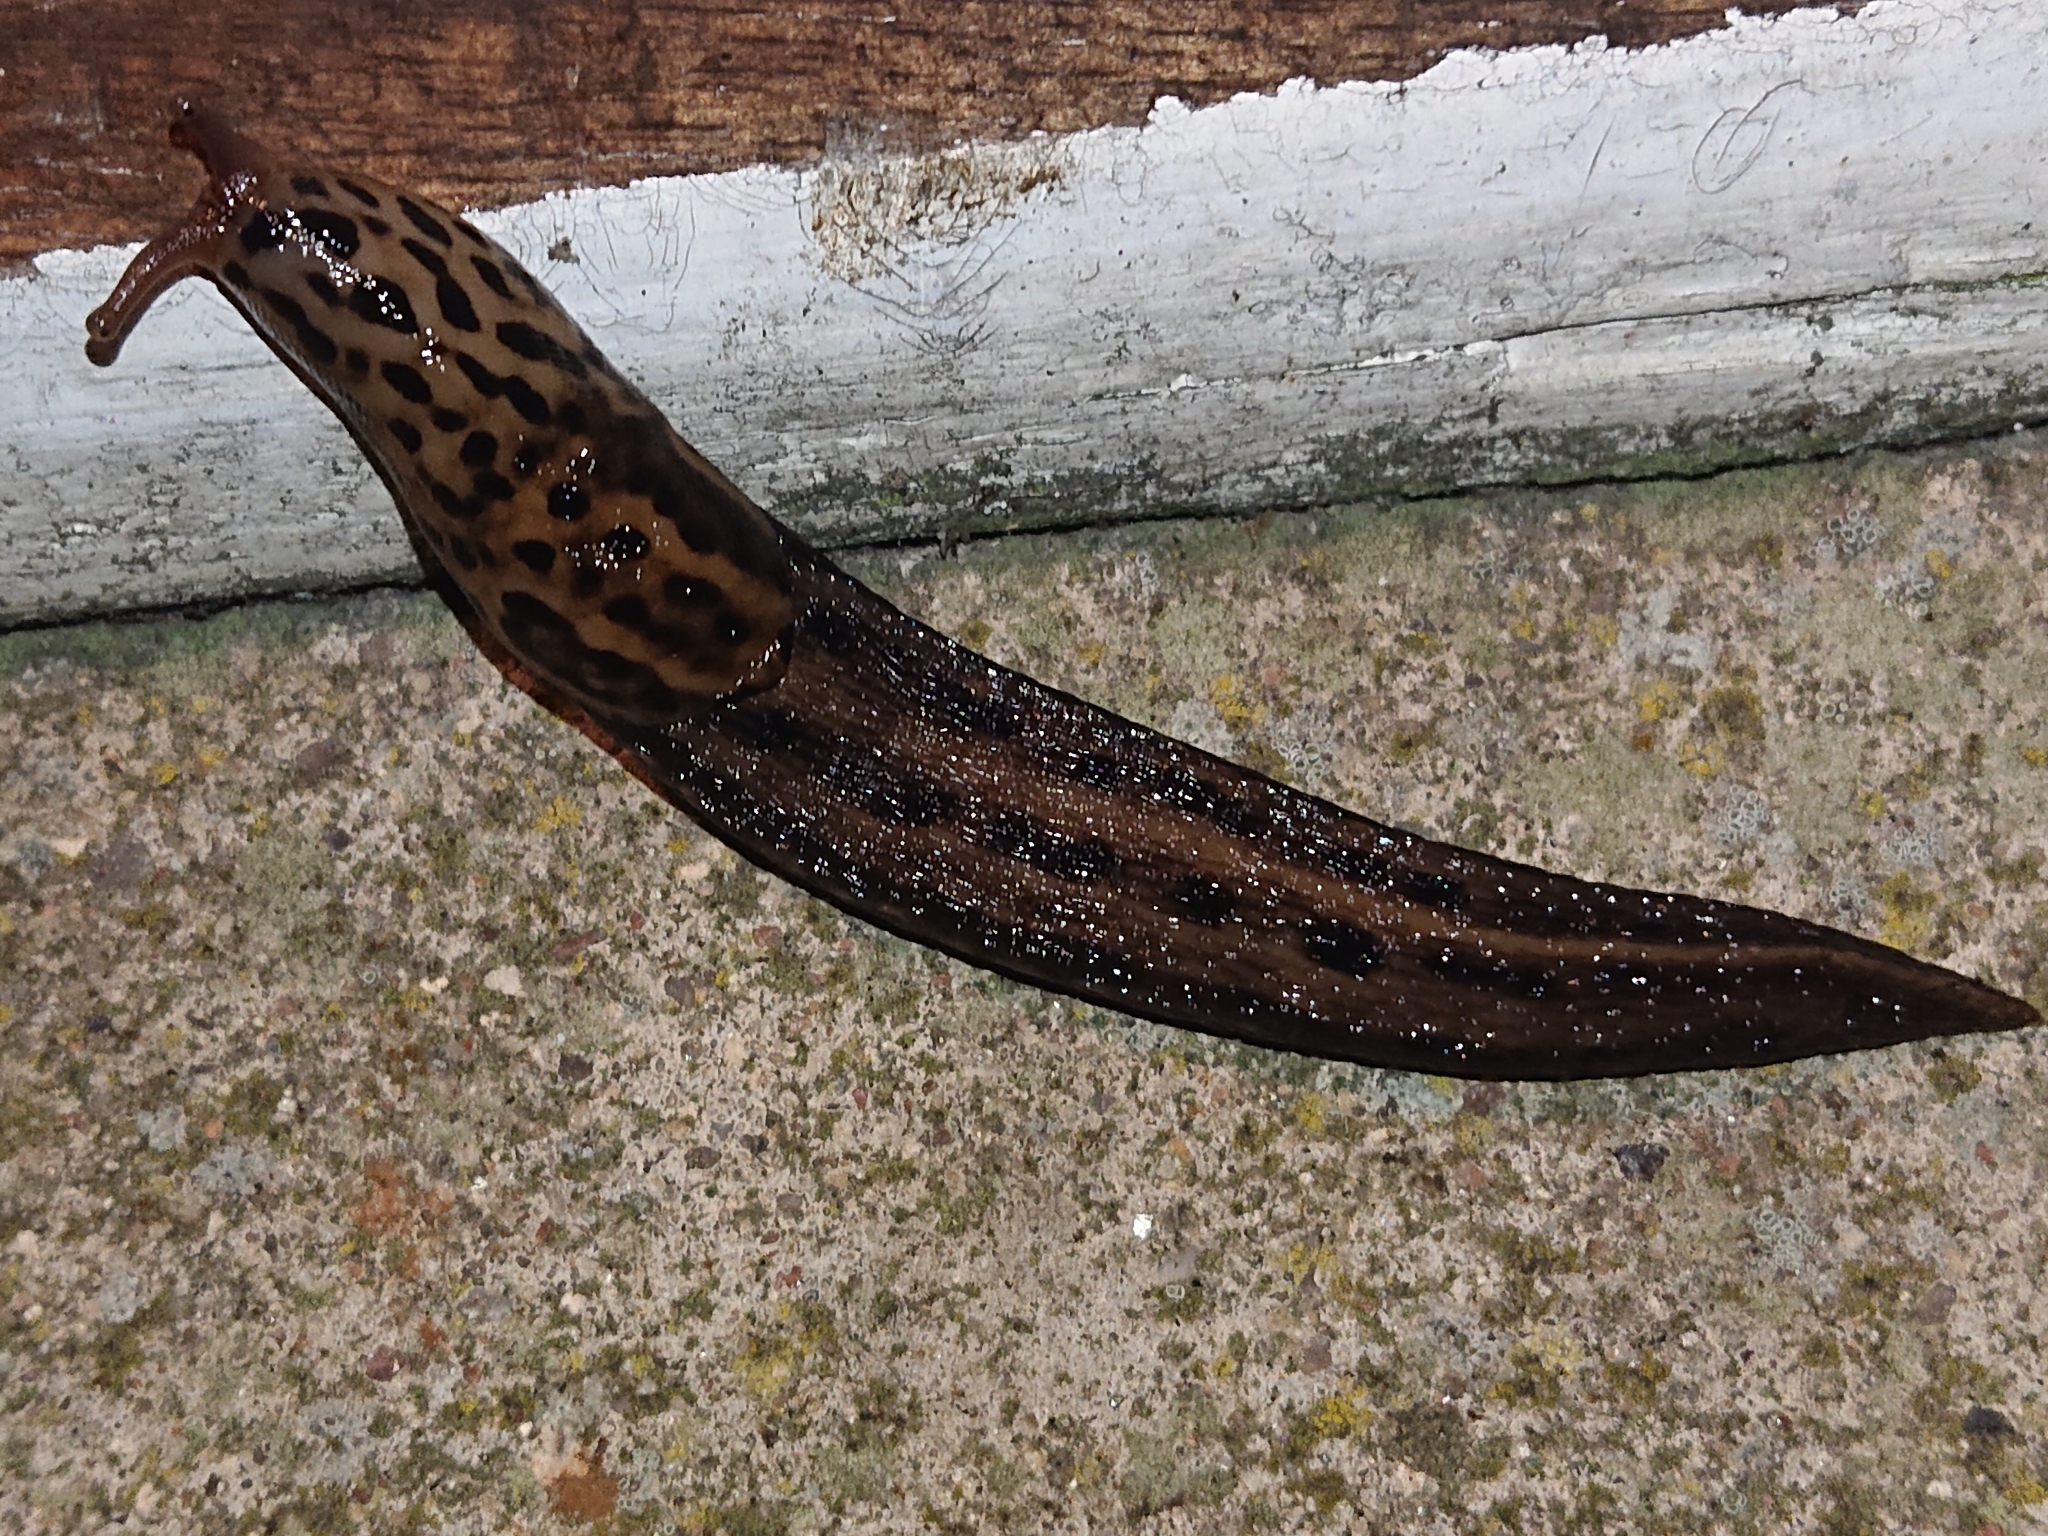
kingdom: Animalia
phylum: Mollusca
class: Gastropoda
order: Stylommatophora
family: Limacidae
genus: Limax
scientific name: Limax maximus
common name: Great grey slug
